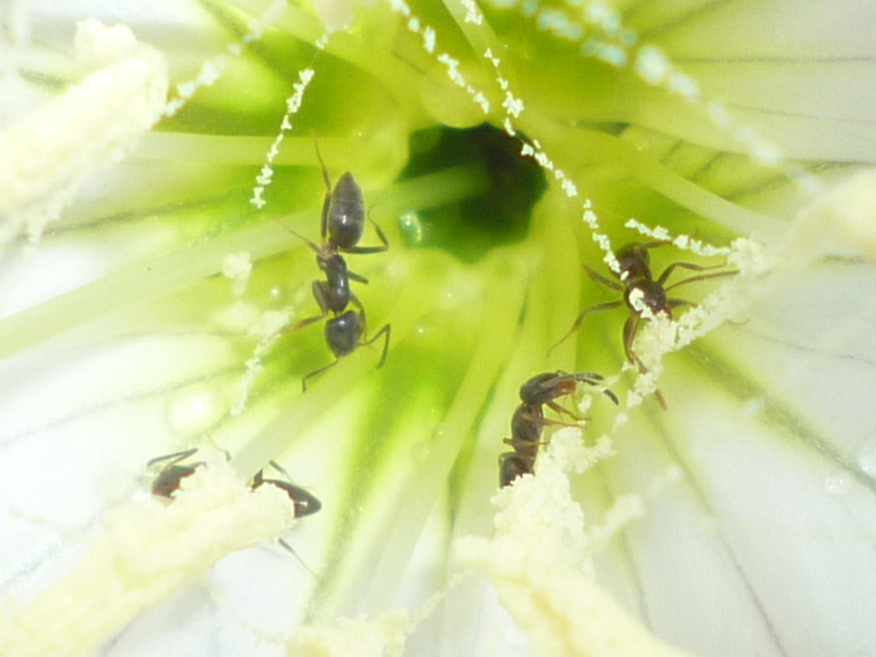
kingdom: Animalia
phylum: Arthropoda
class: Insecta
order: Hymenoptera
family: Formicidae
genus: Tapinoma
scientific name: Tapinoma sessile
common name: Odorous house ant
